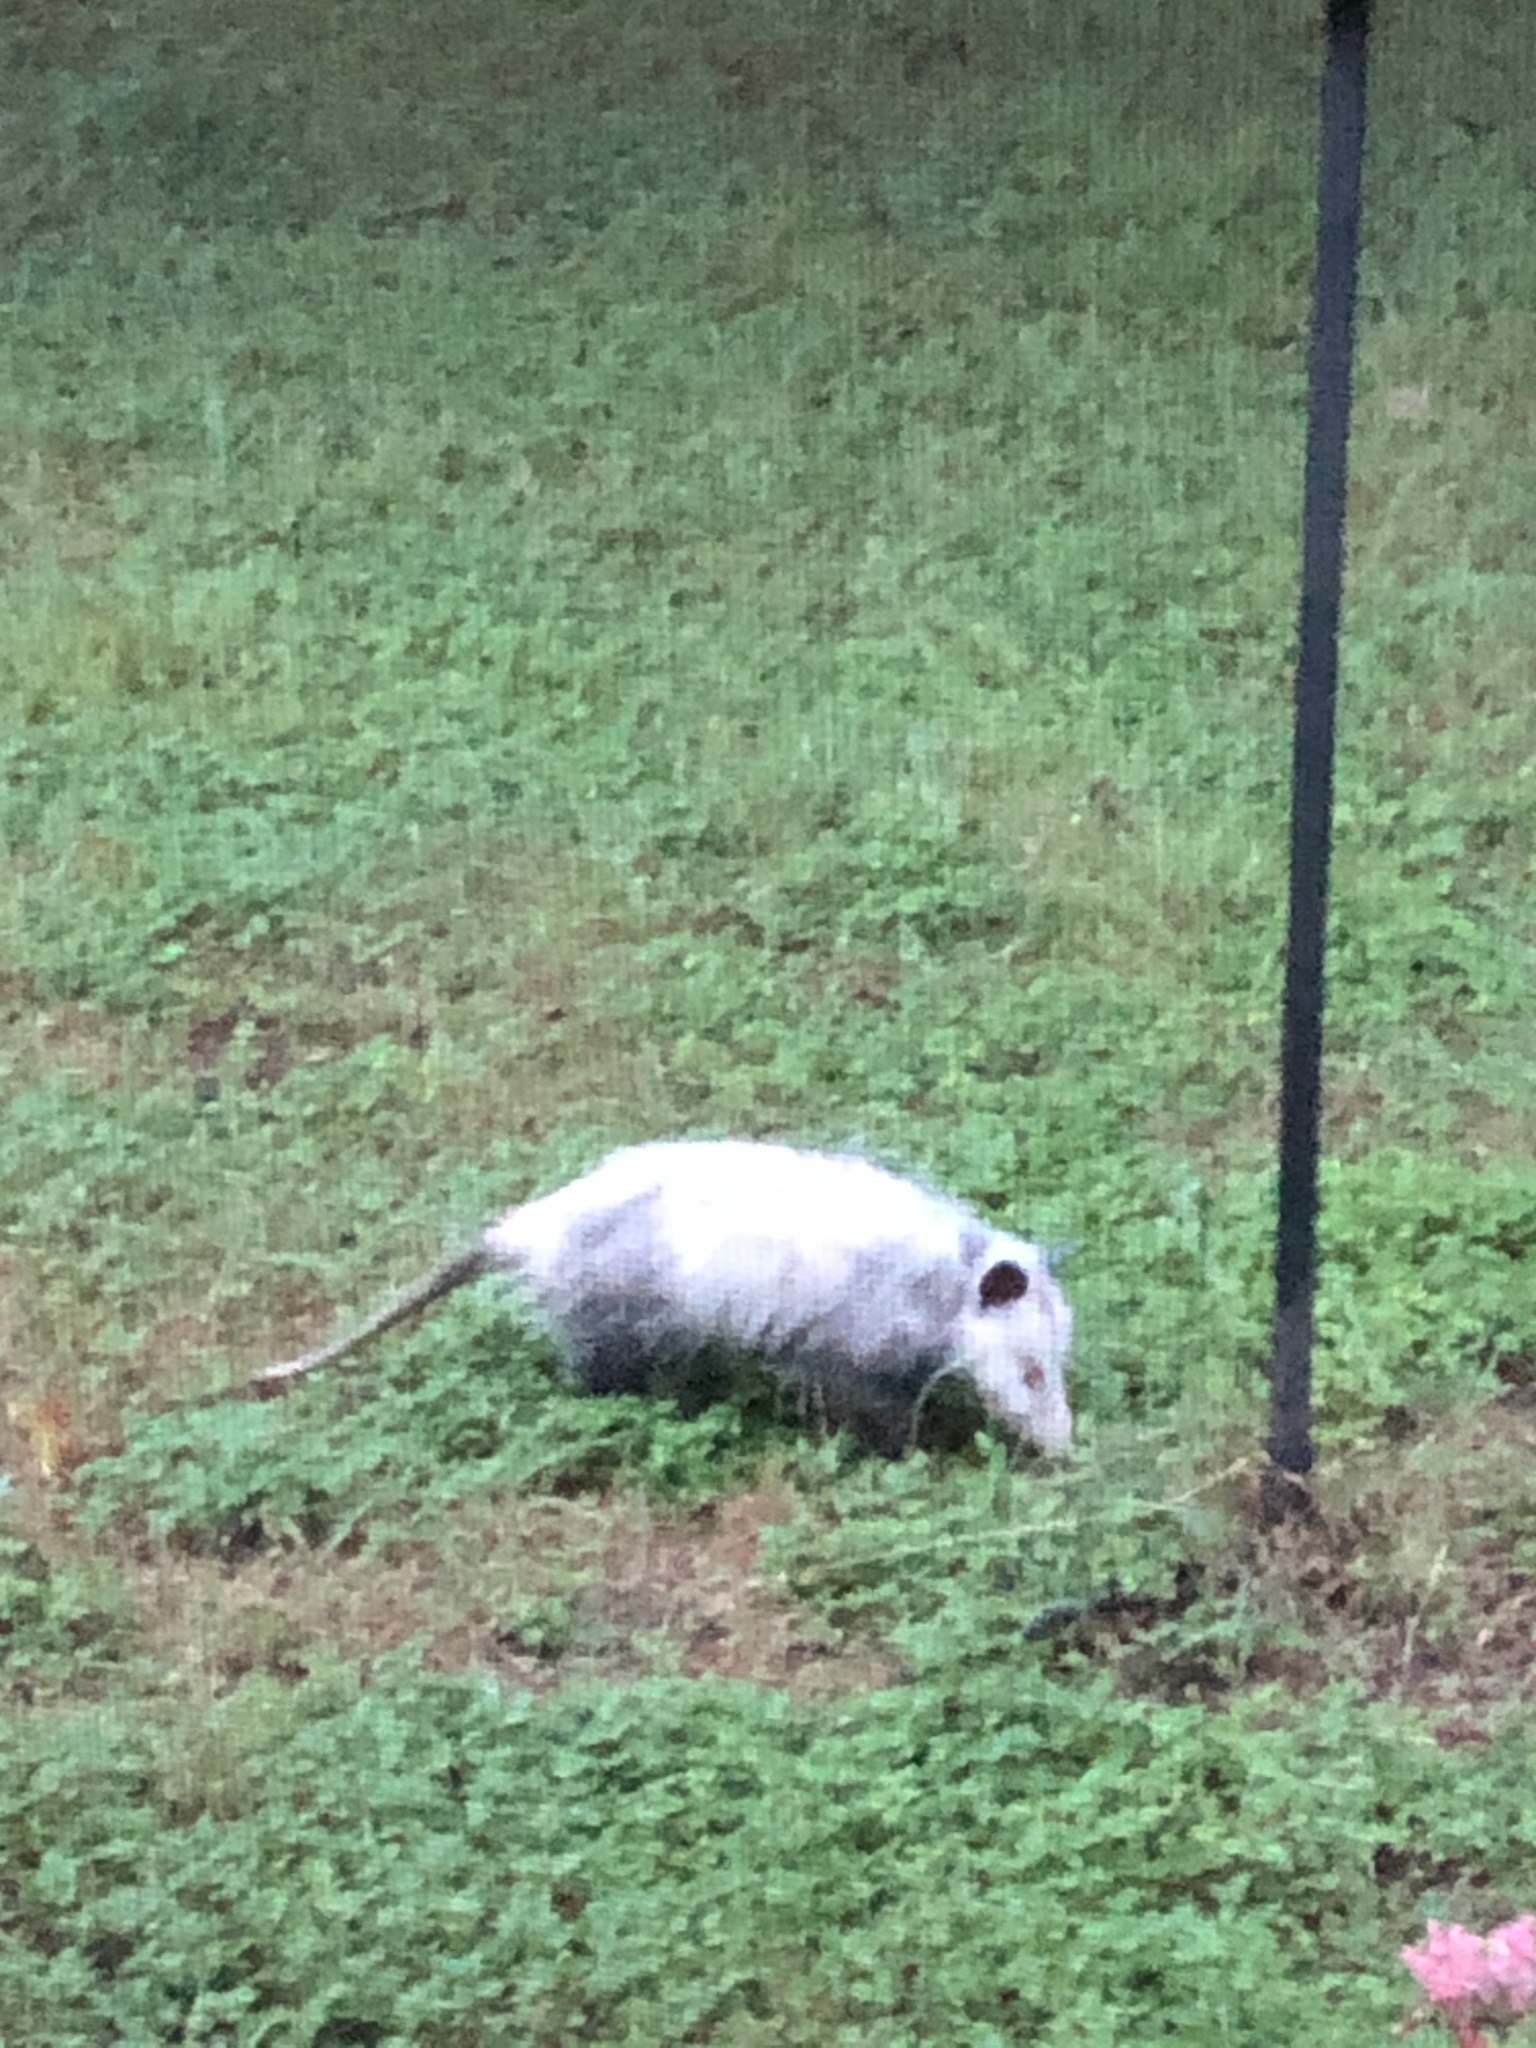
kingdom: Animalia
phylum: Chordata
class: Mammalia
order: Didelphimorphia
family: Didelphidae
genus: Didelphis
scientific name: Didelphis virginiana
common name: Virginia opossum
